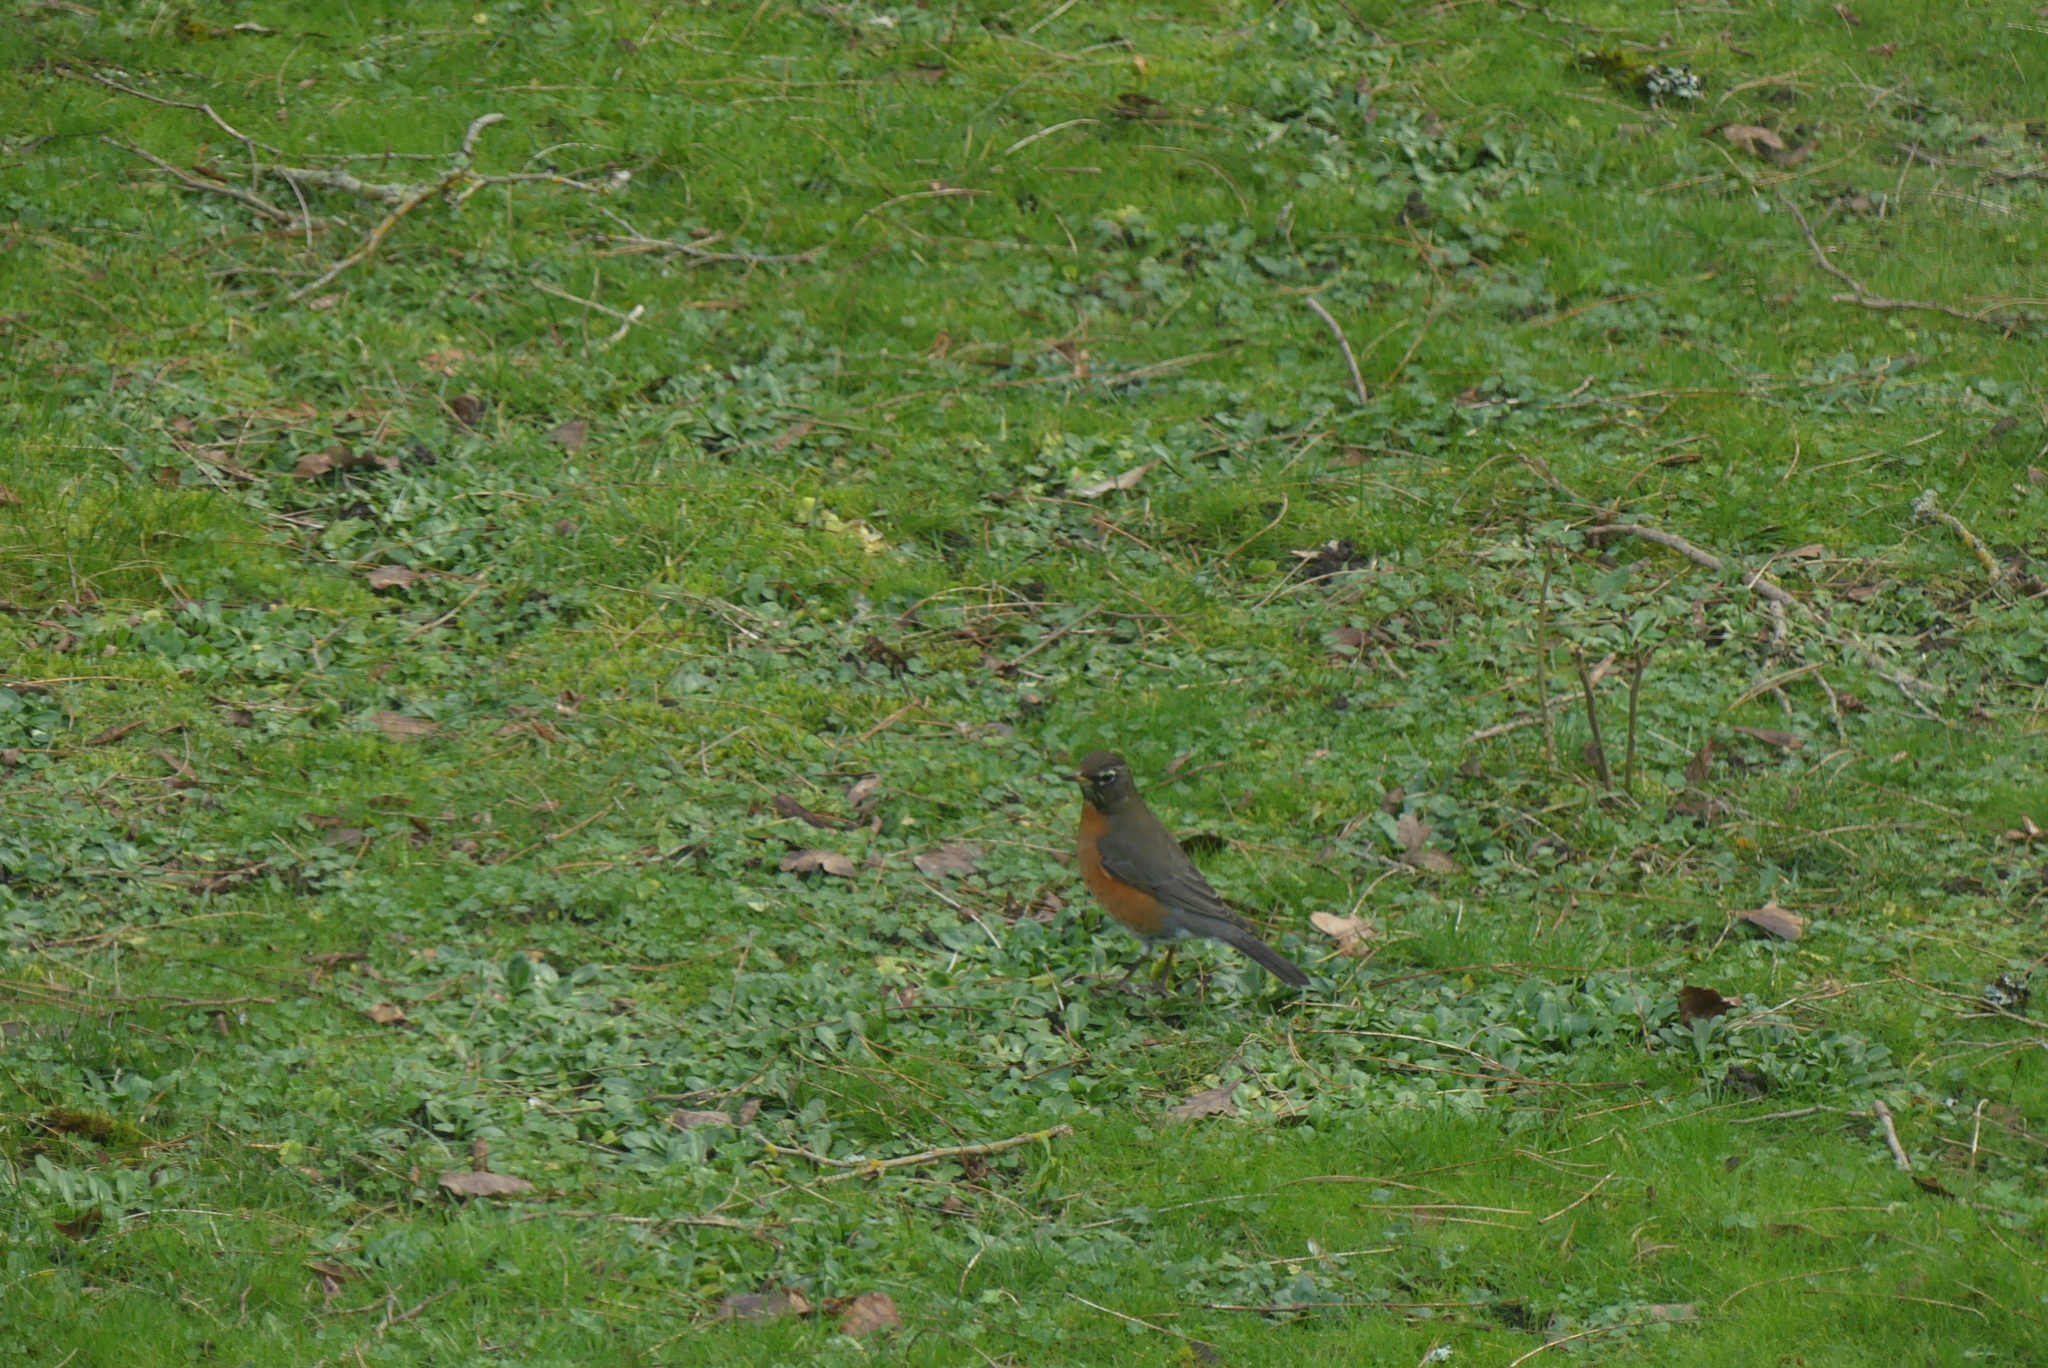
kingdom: Animalia
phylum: Chordata
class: Aves
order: Passeriformes
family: Turdidae
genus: Turdus
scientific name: Turdus migratorius
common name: American robin
